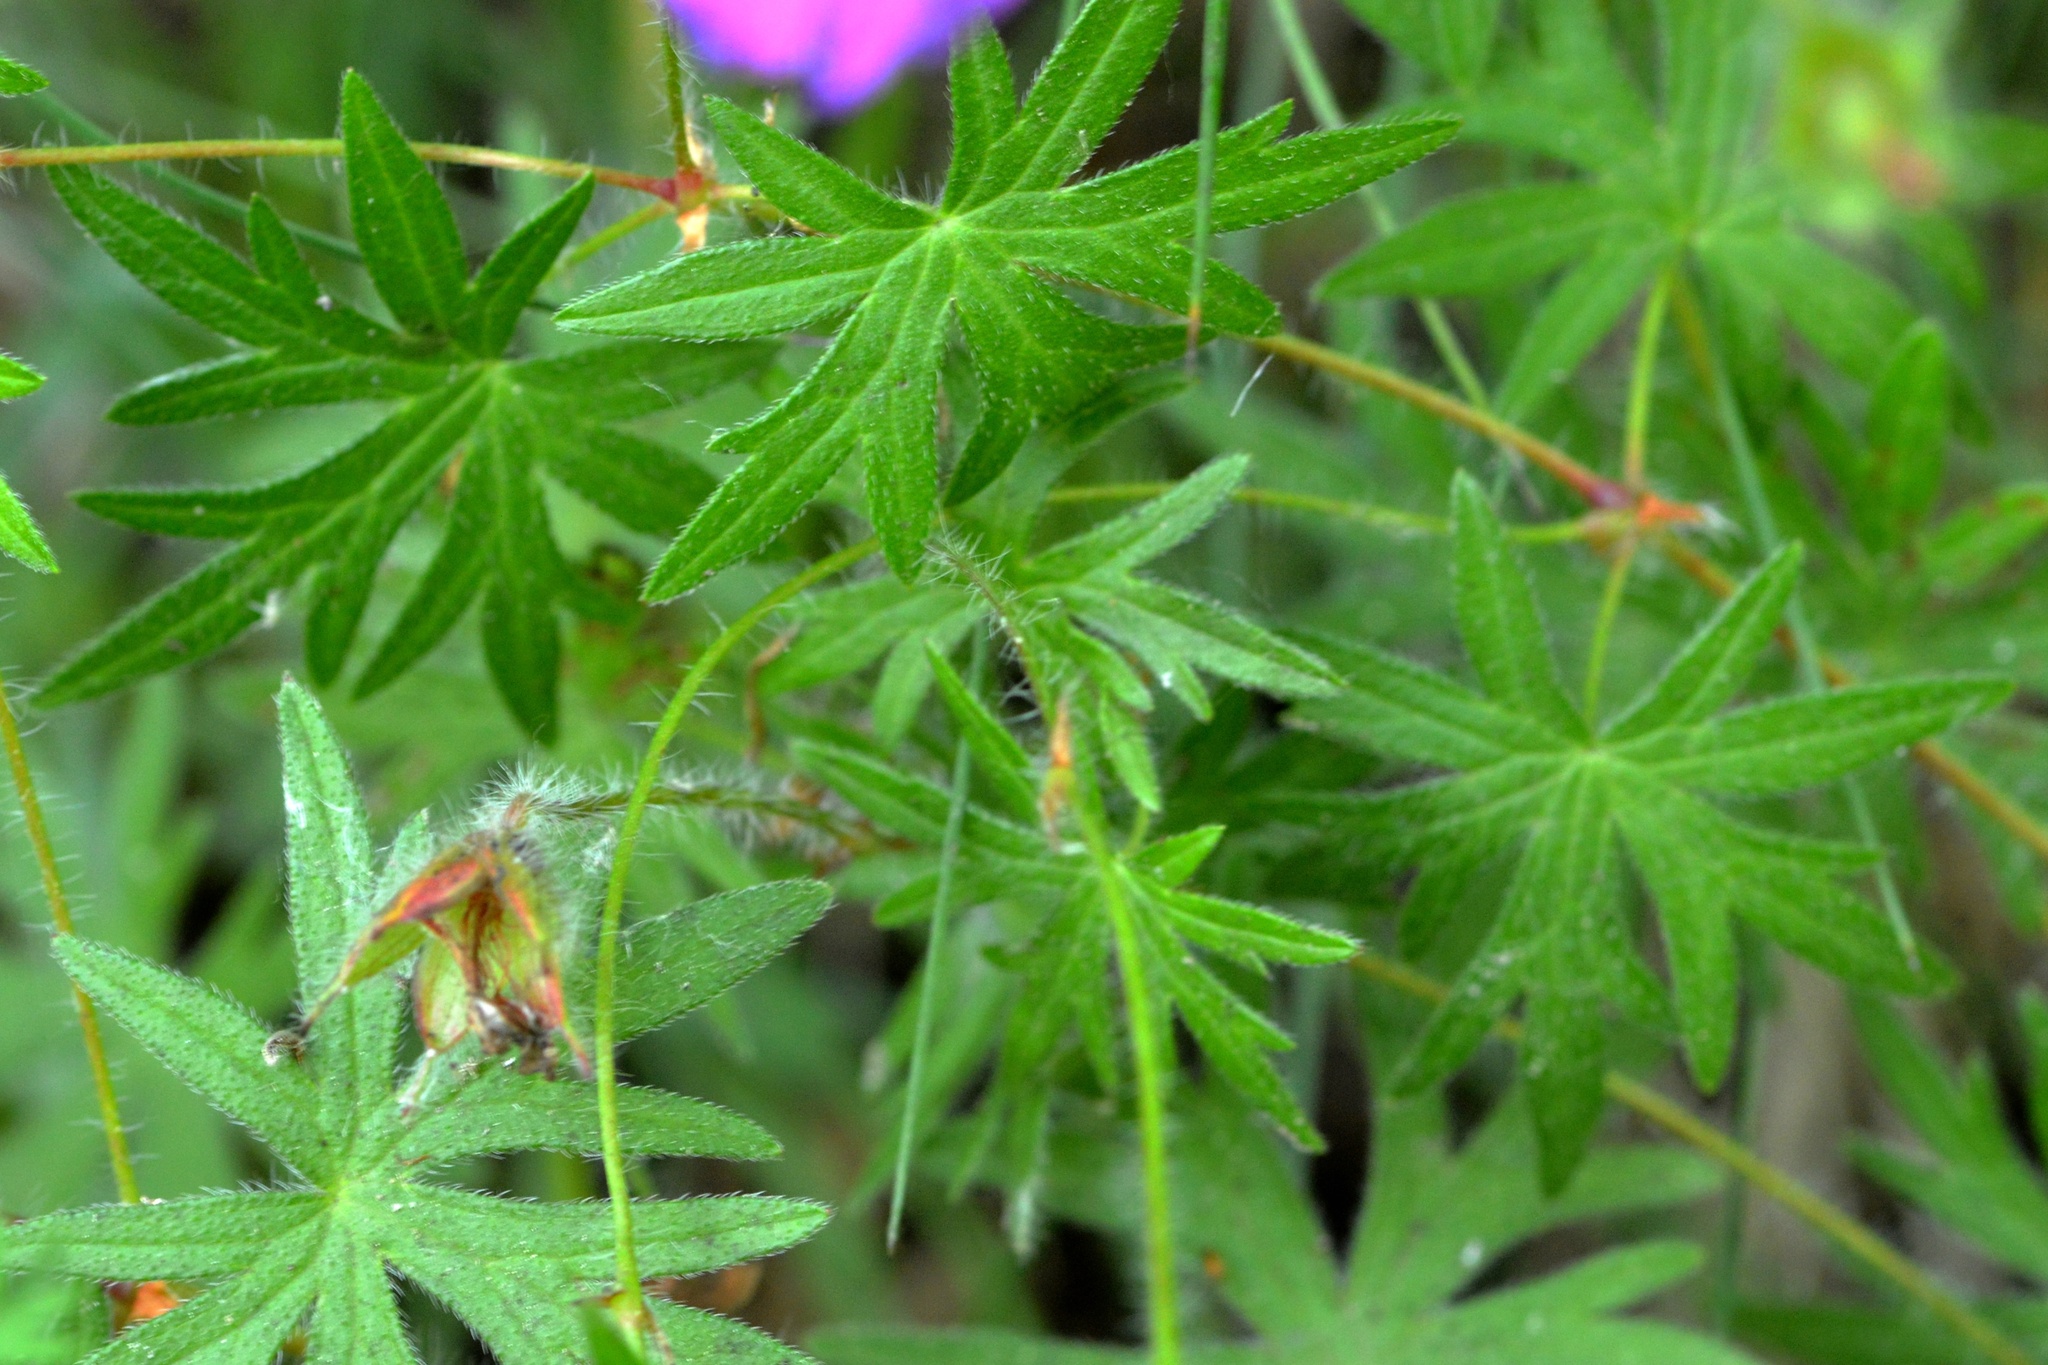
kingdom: Plantae
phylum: Tracheophyta
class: Magnoliopsida
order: Geraniales
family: Geraniaceae
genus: Geranium
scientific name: Geranium sanguineum
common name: Bloody crane's-bill
